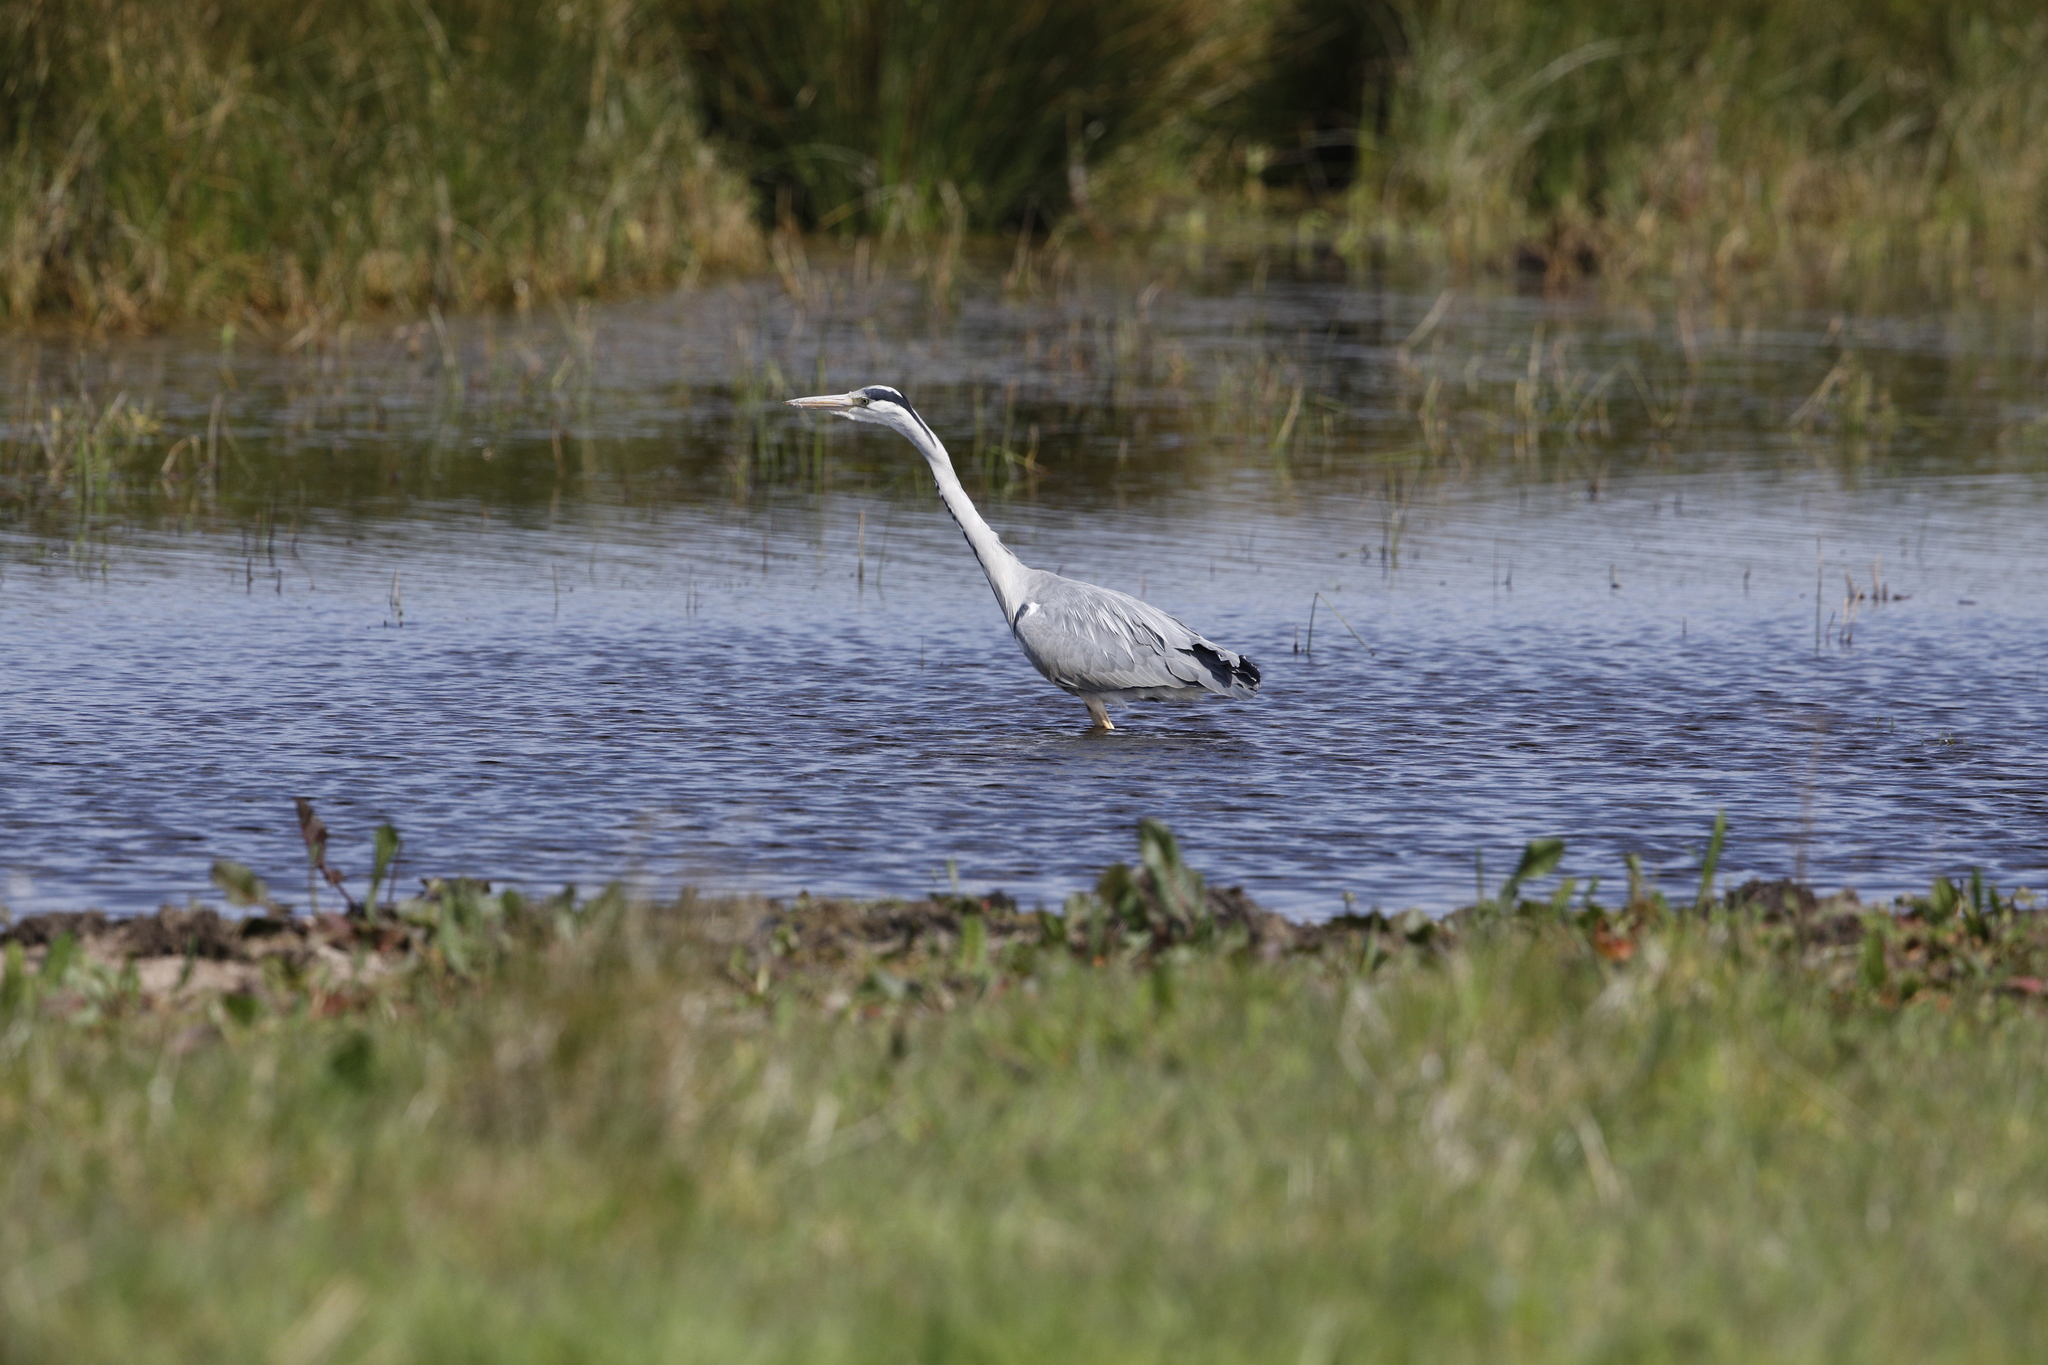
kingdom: Animalia
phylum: Chordata
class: Aves
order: Pelecaniformes
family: Ardeidae
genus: Ardea
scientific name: Ardea cinerea
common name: Grey heron
